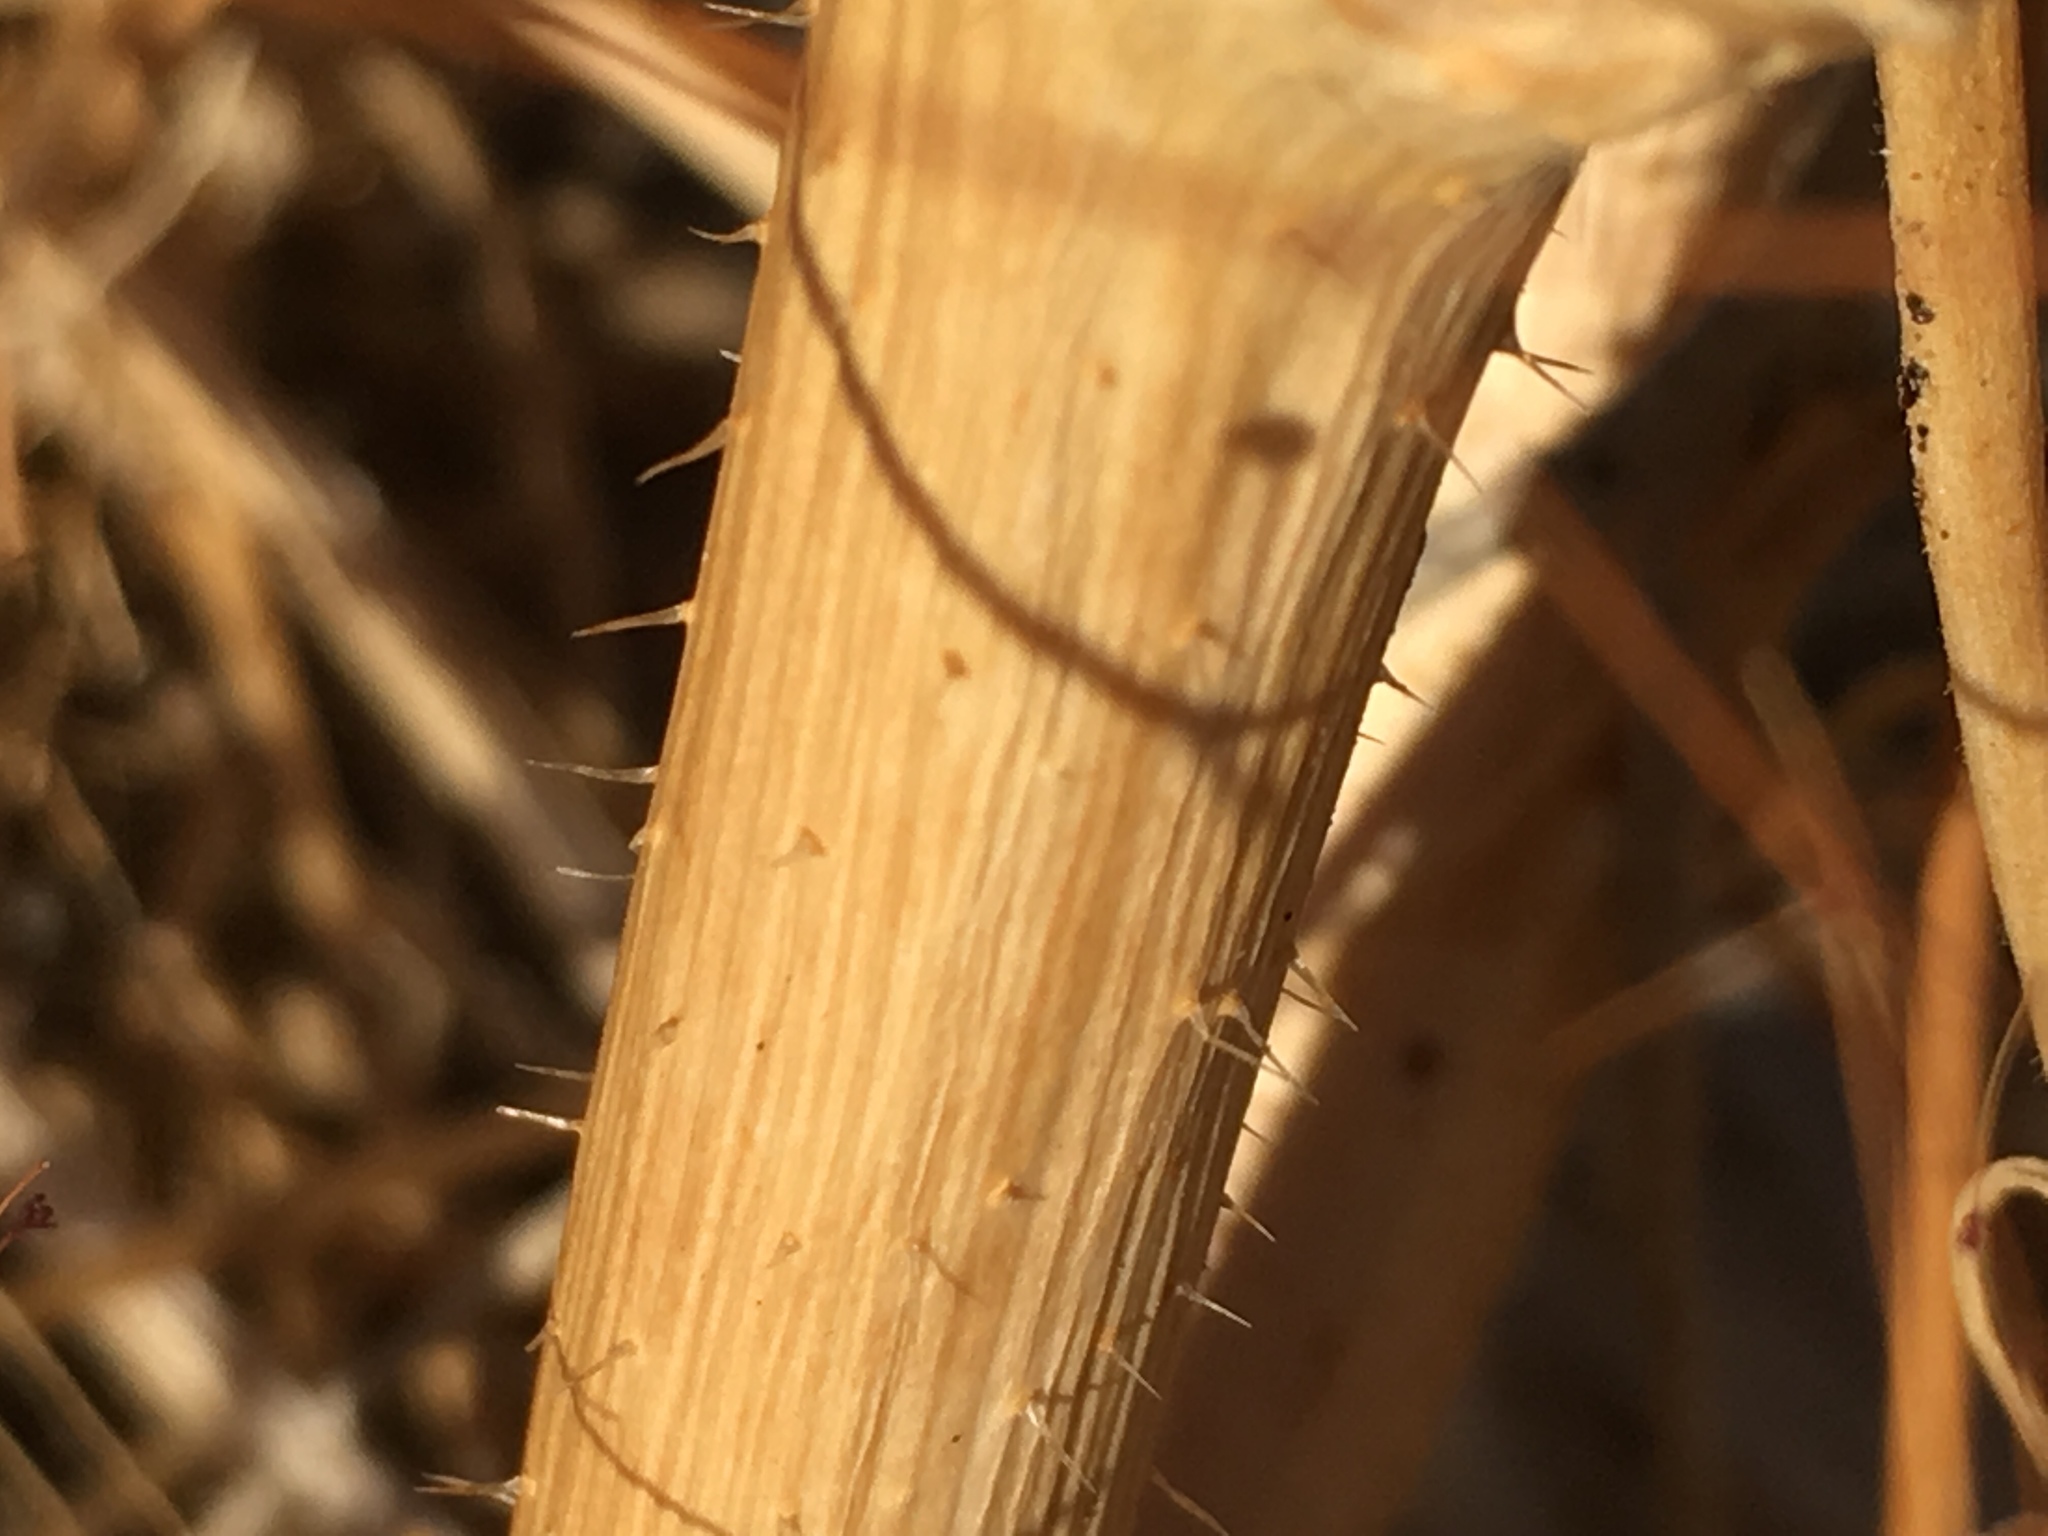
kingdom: Plantae
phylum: Tracheophyta
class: Magnoliopsida
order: Brassicales
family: Brassicaceae
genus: Brassica
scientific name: Brassica tournefortii
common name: Pale cabbage
